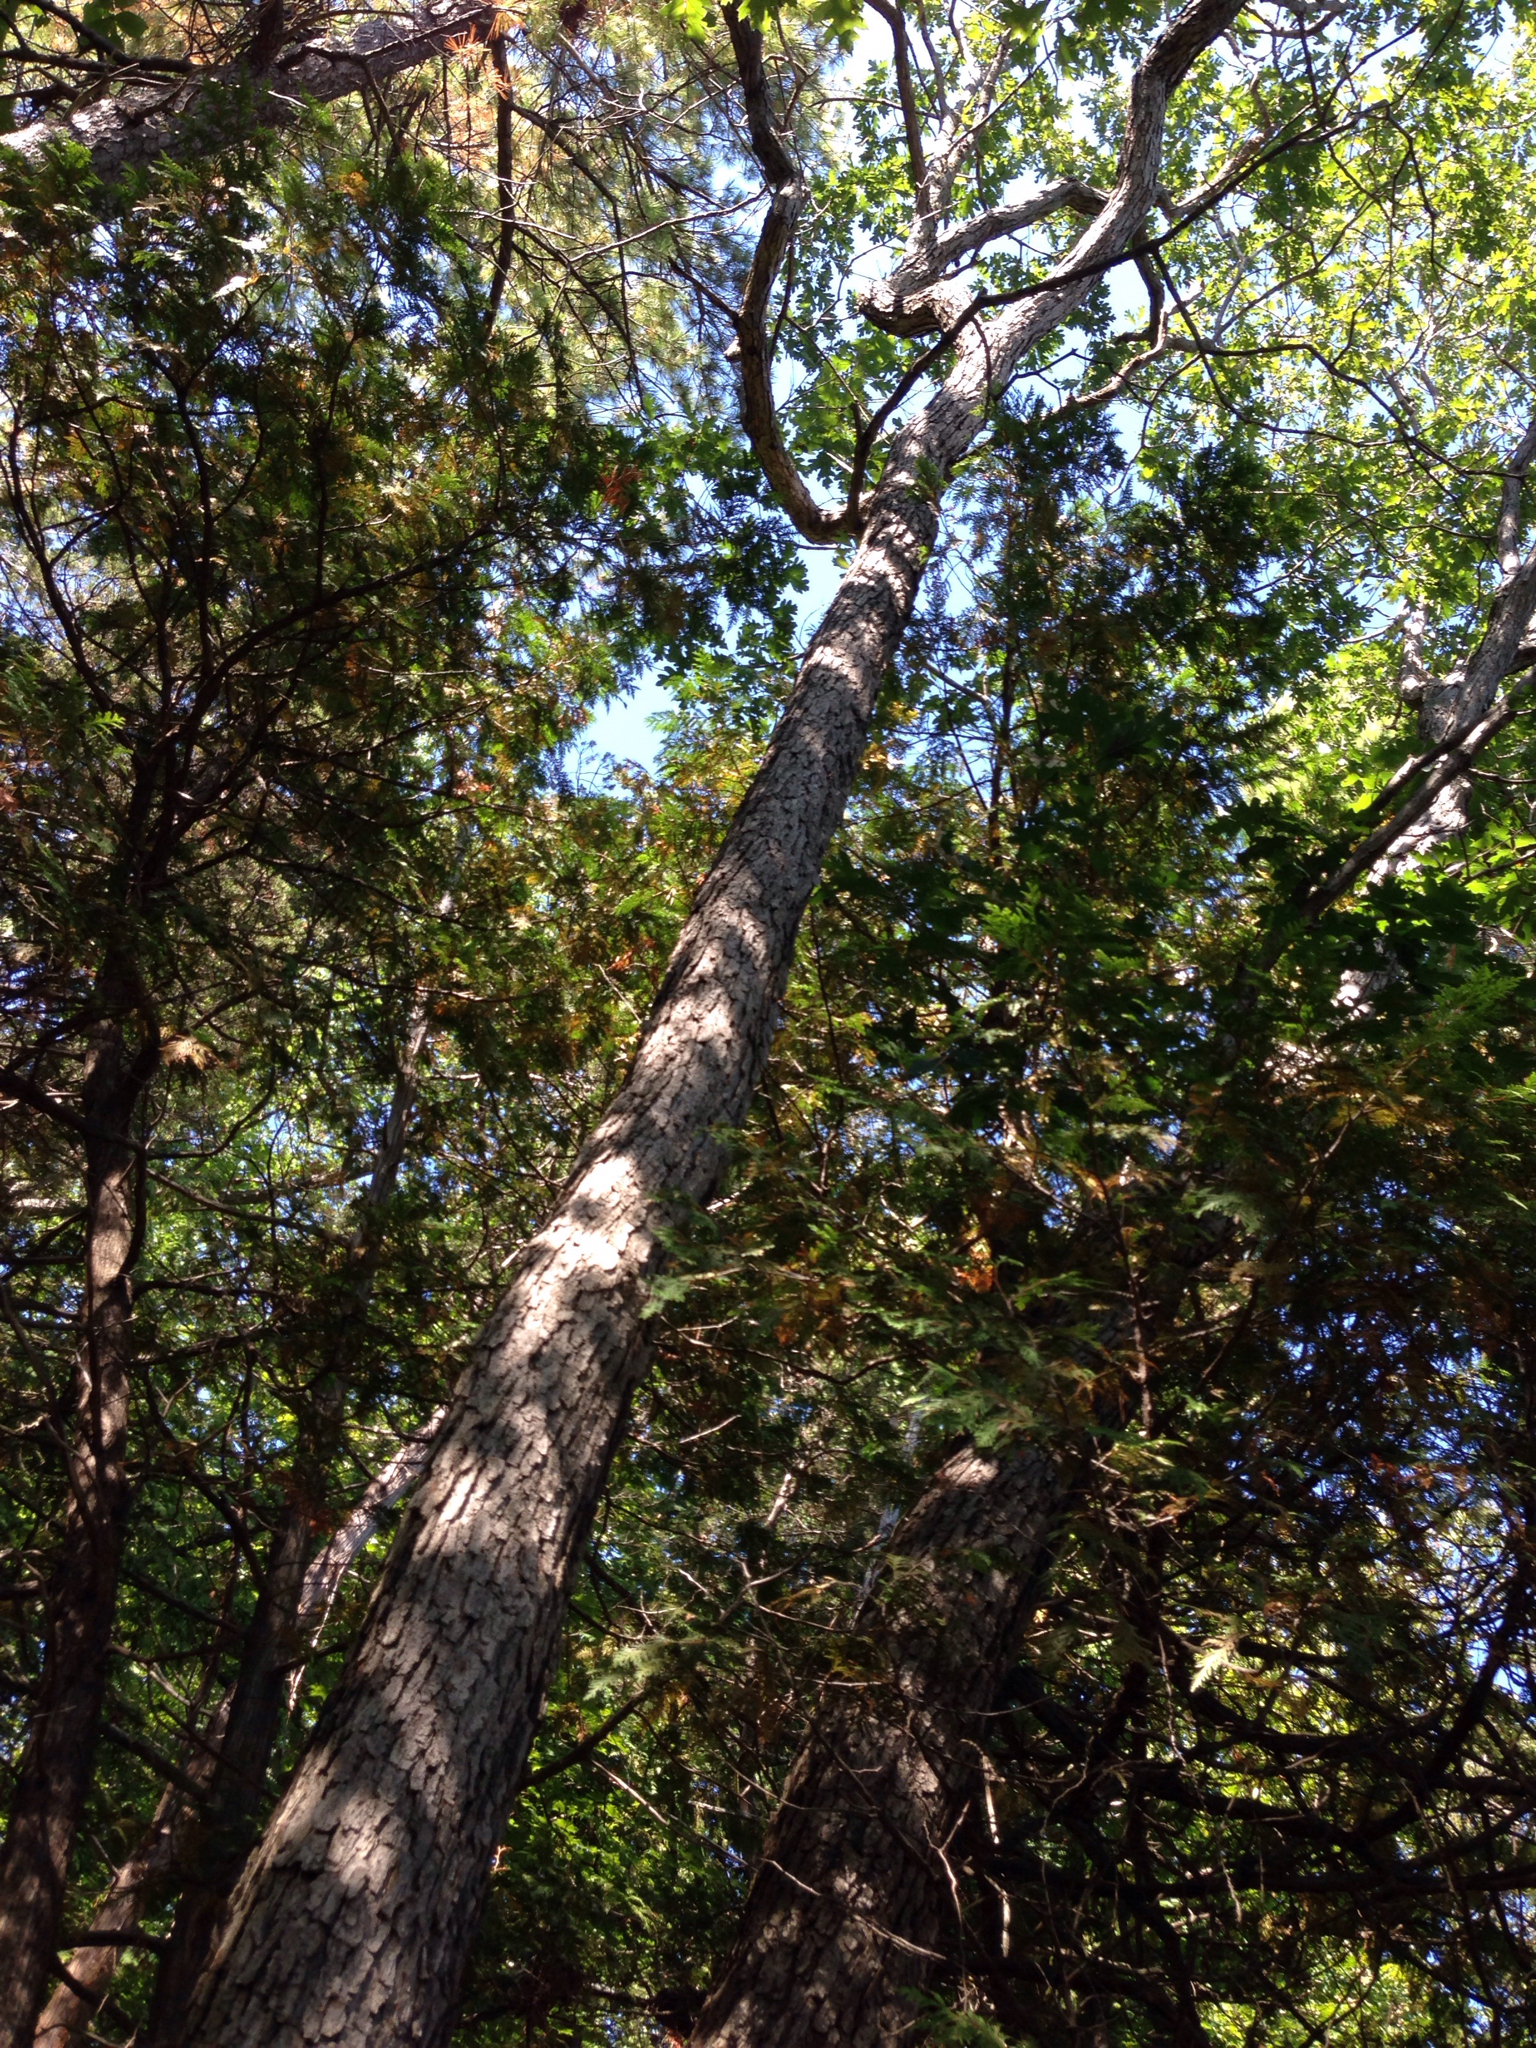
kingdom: Plantae
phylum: Tracheophyta
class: Magnoliopsida
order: Fagales
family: Fagaceae
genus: Quercus
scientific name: Quercus alba
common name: White oak
